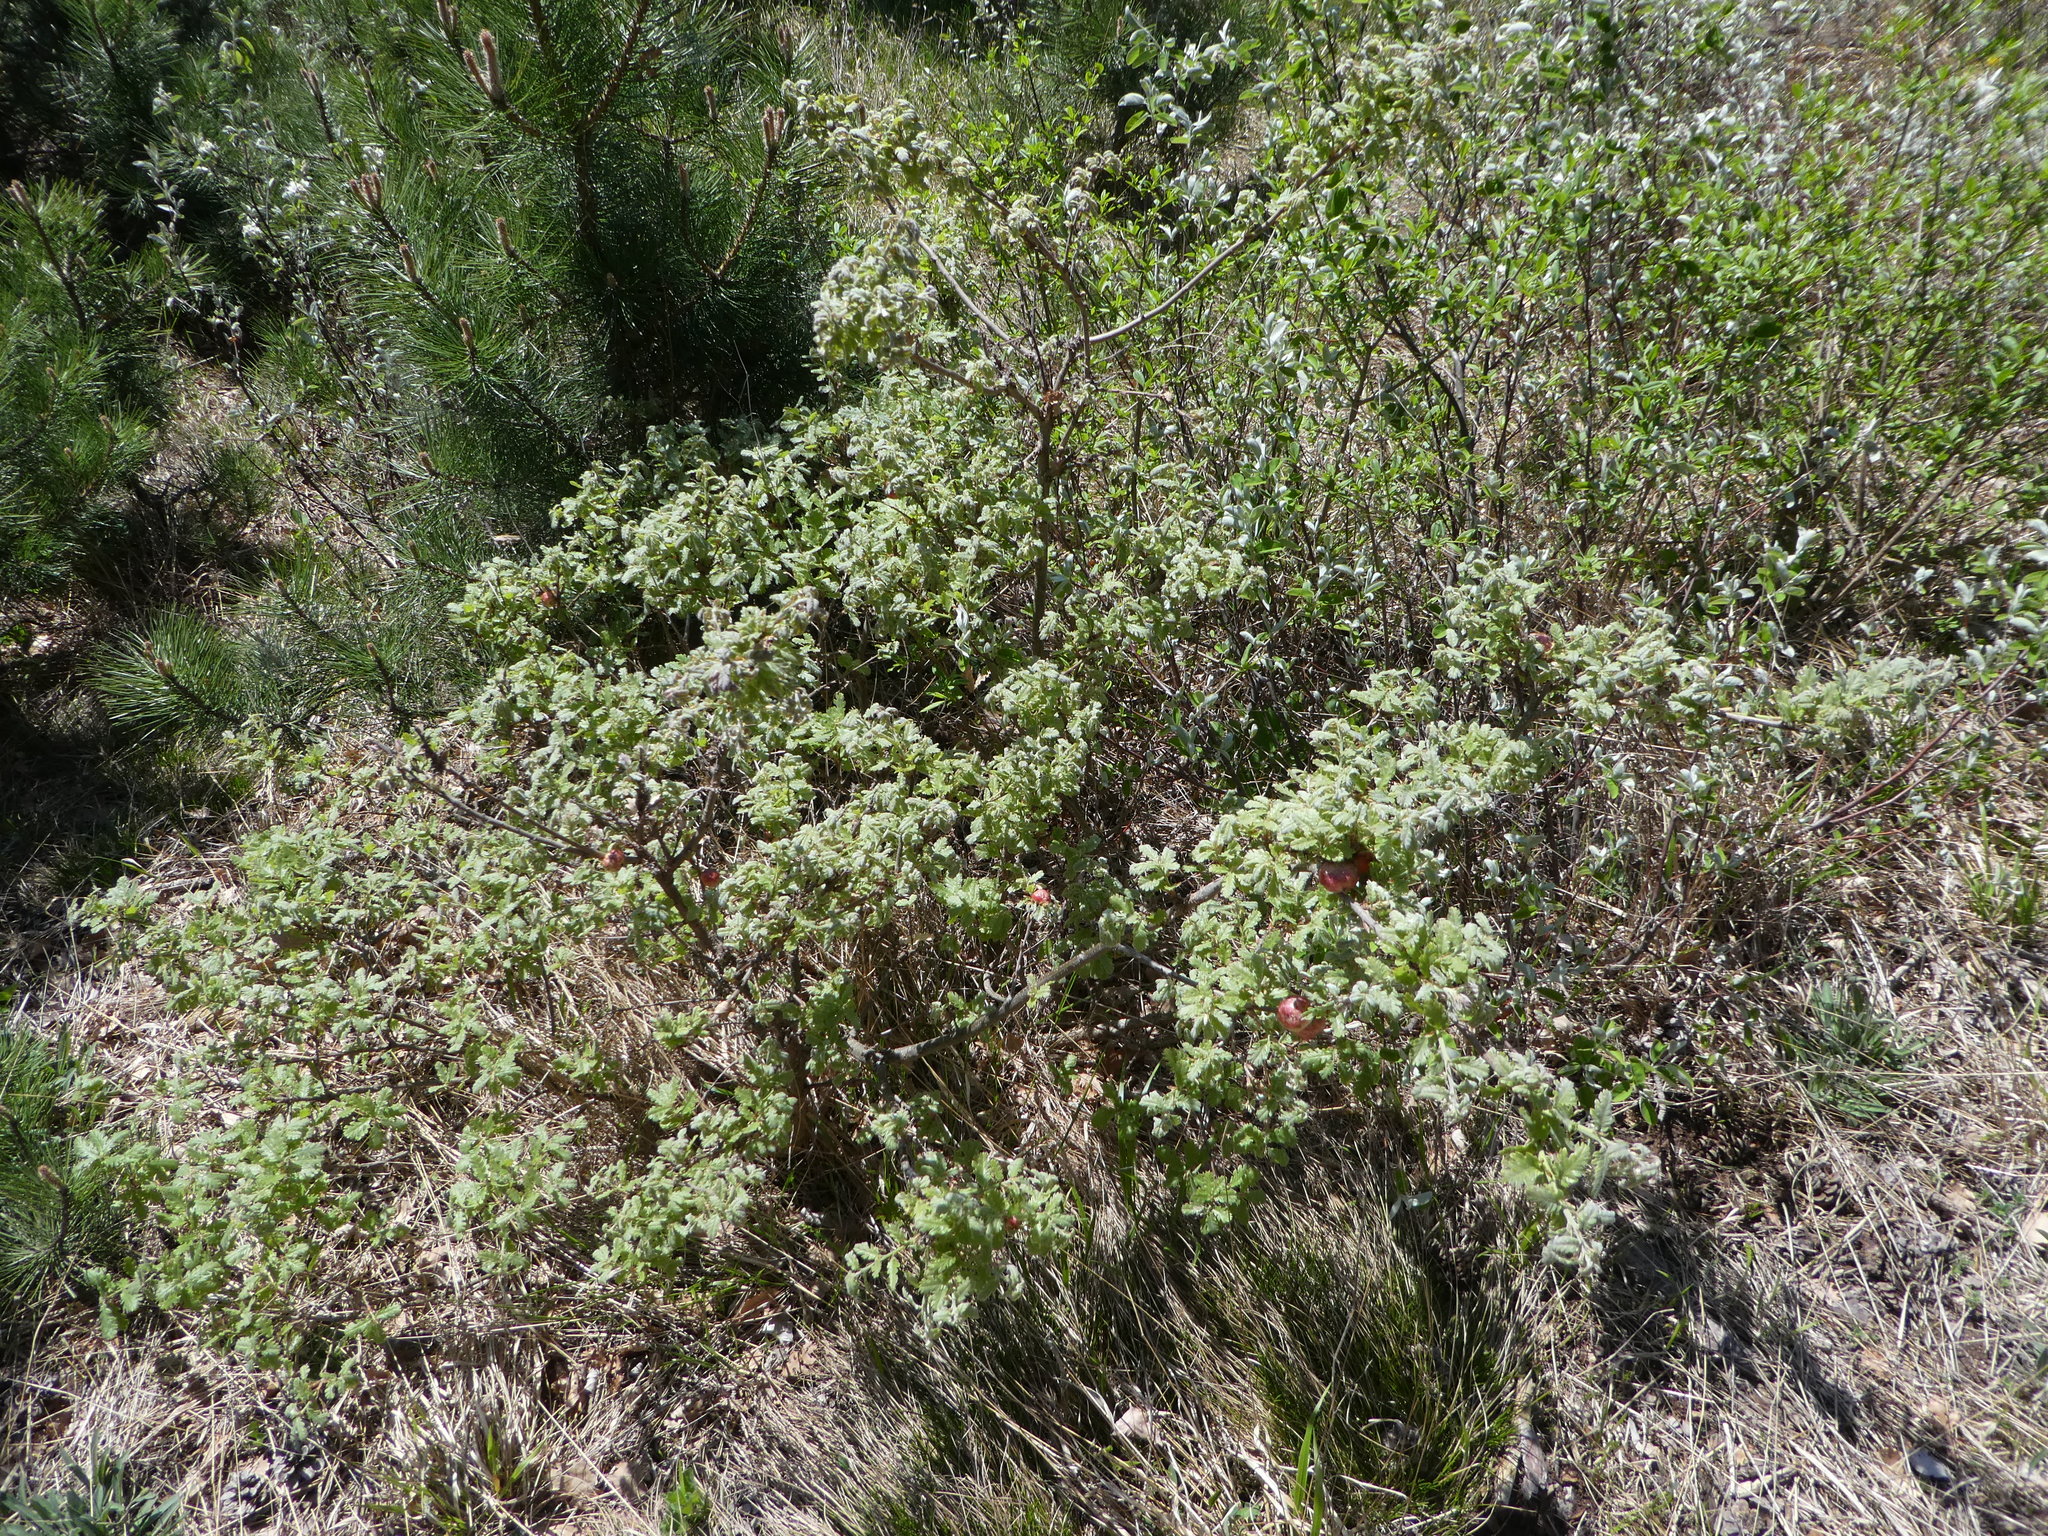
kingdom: Animalia
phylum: Arthropoda
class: Insecta
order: Hymenoptera
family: Cynipidae
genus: Biorhiza
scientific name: Biorhiza pallida
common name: Oak apple
